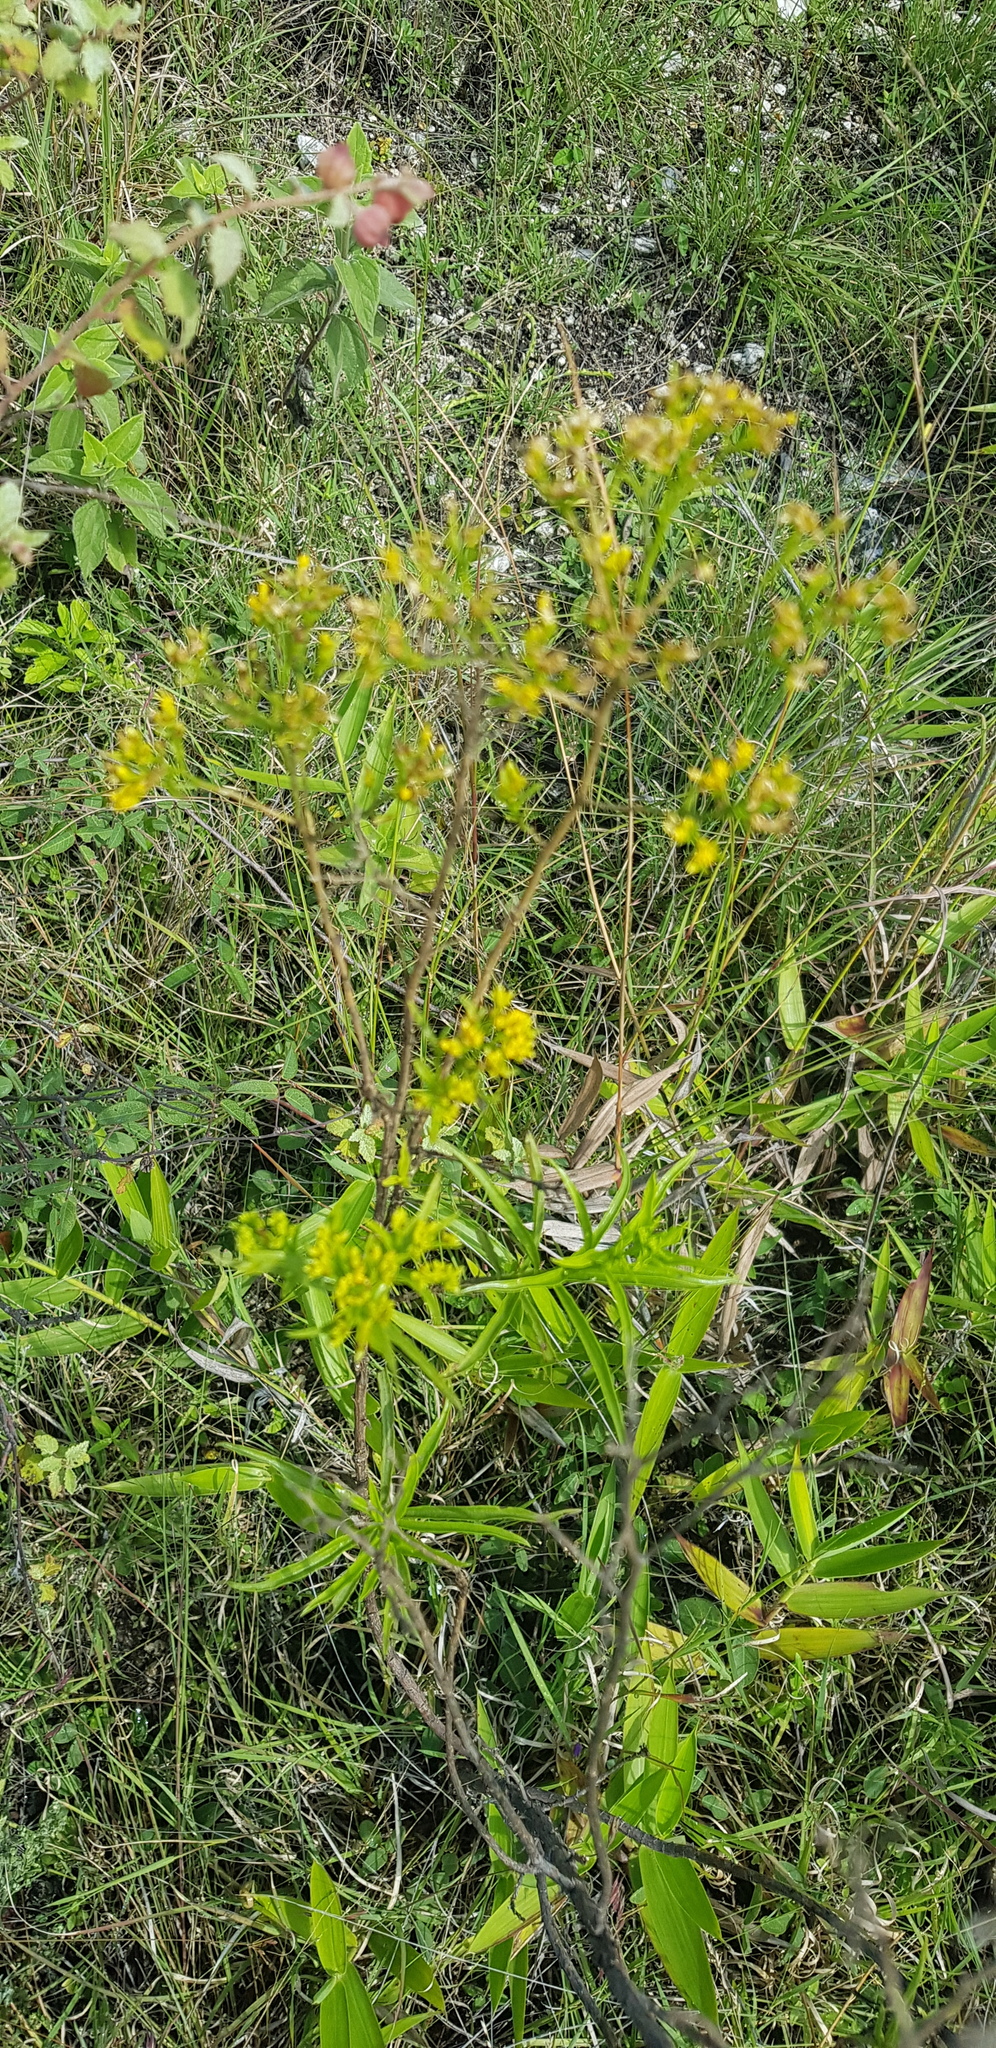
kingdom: Plantae
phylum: Tracheophyta
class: Magnoliopsida
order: Asterales
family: Asteraceae
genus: Gymnosperma
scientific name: Gymnosperma glutinosum
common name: Gumhead
